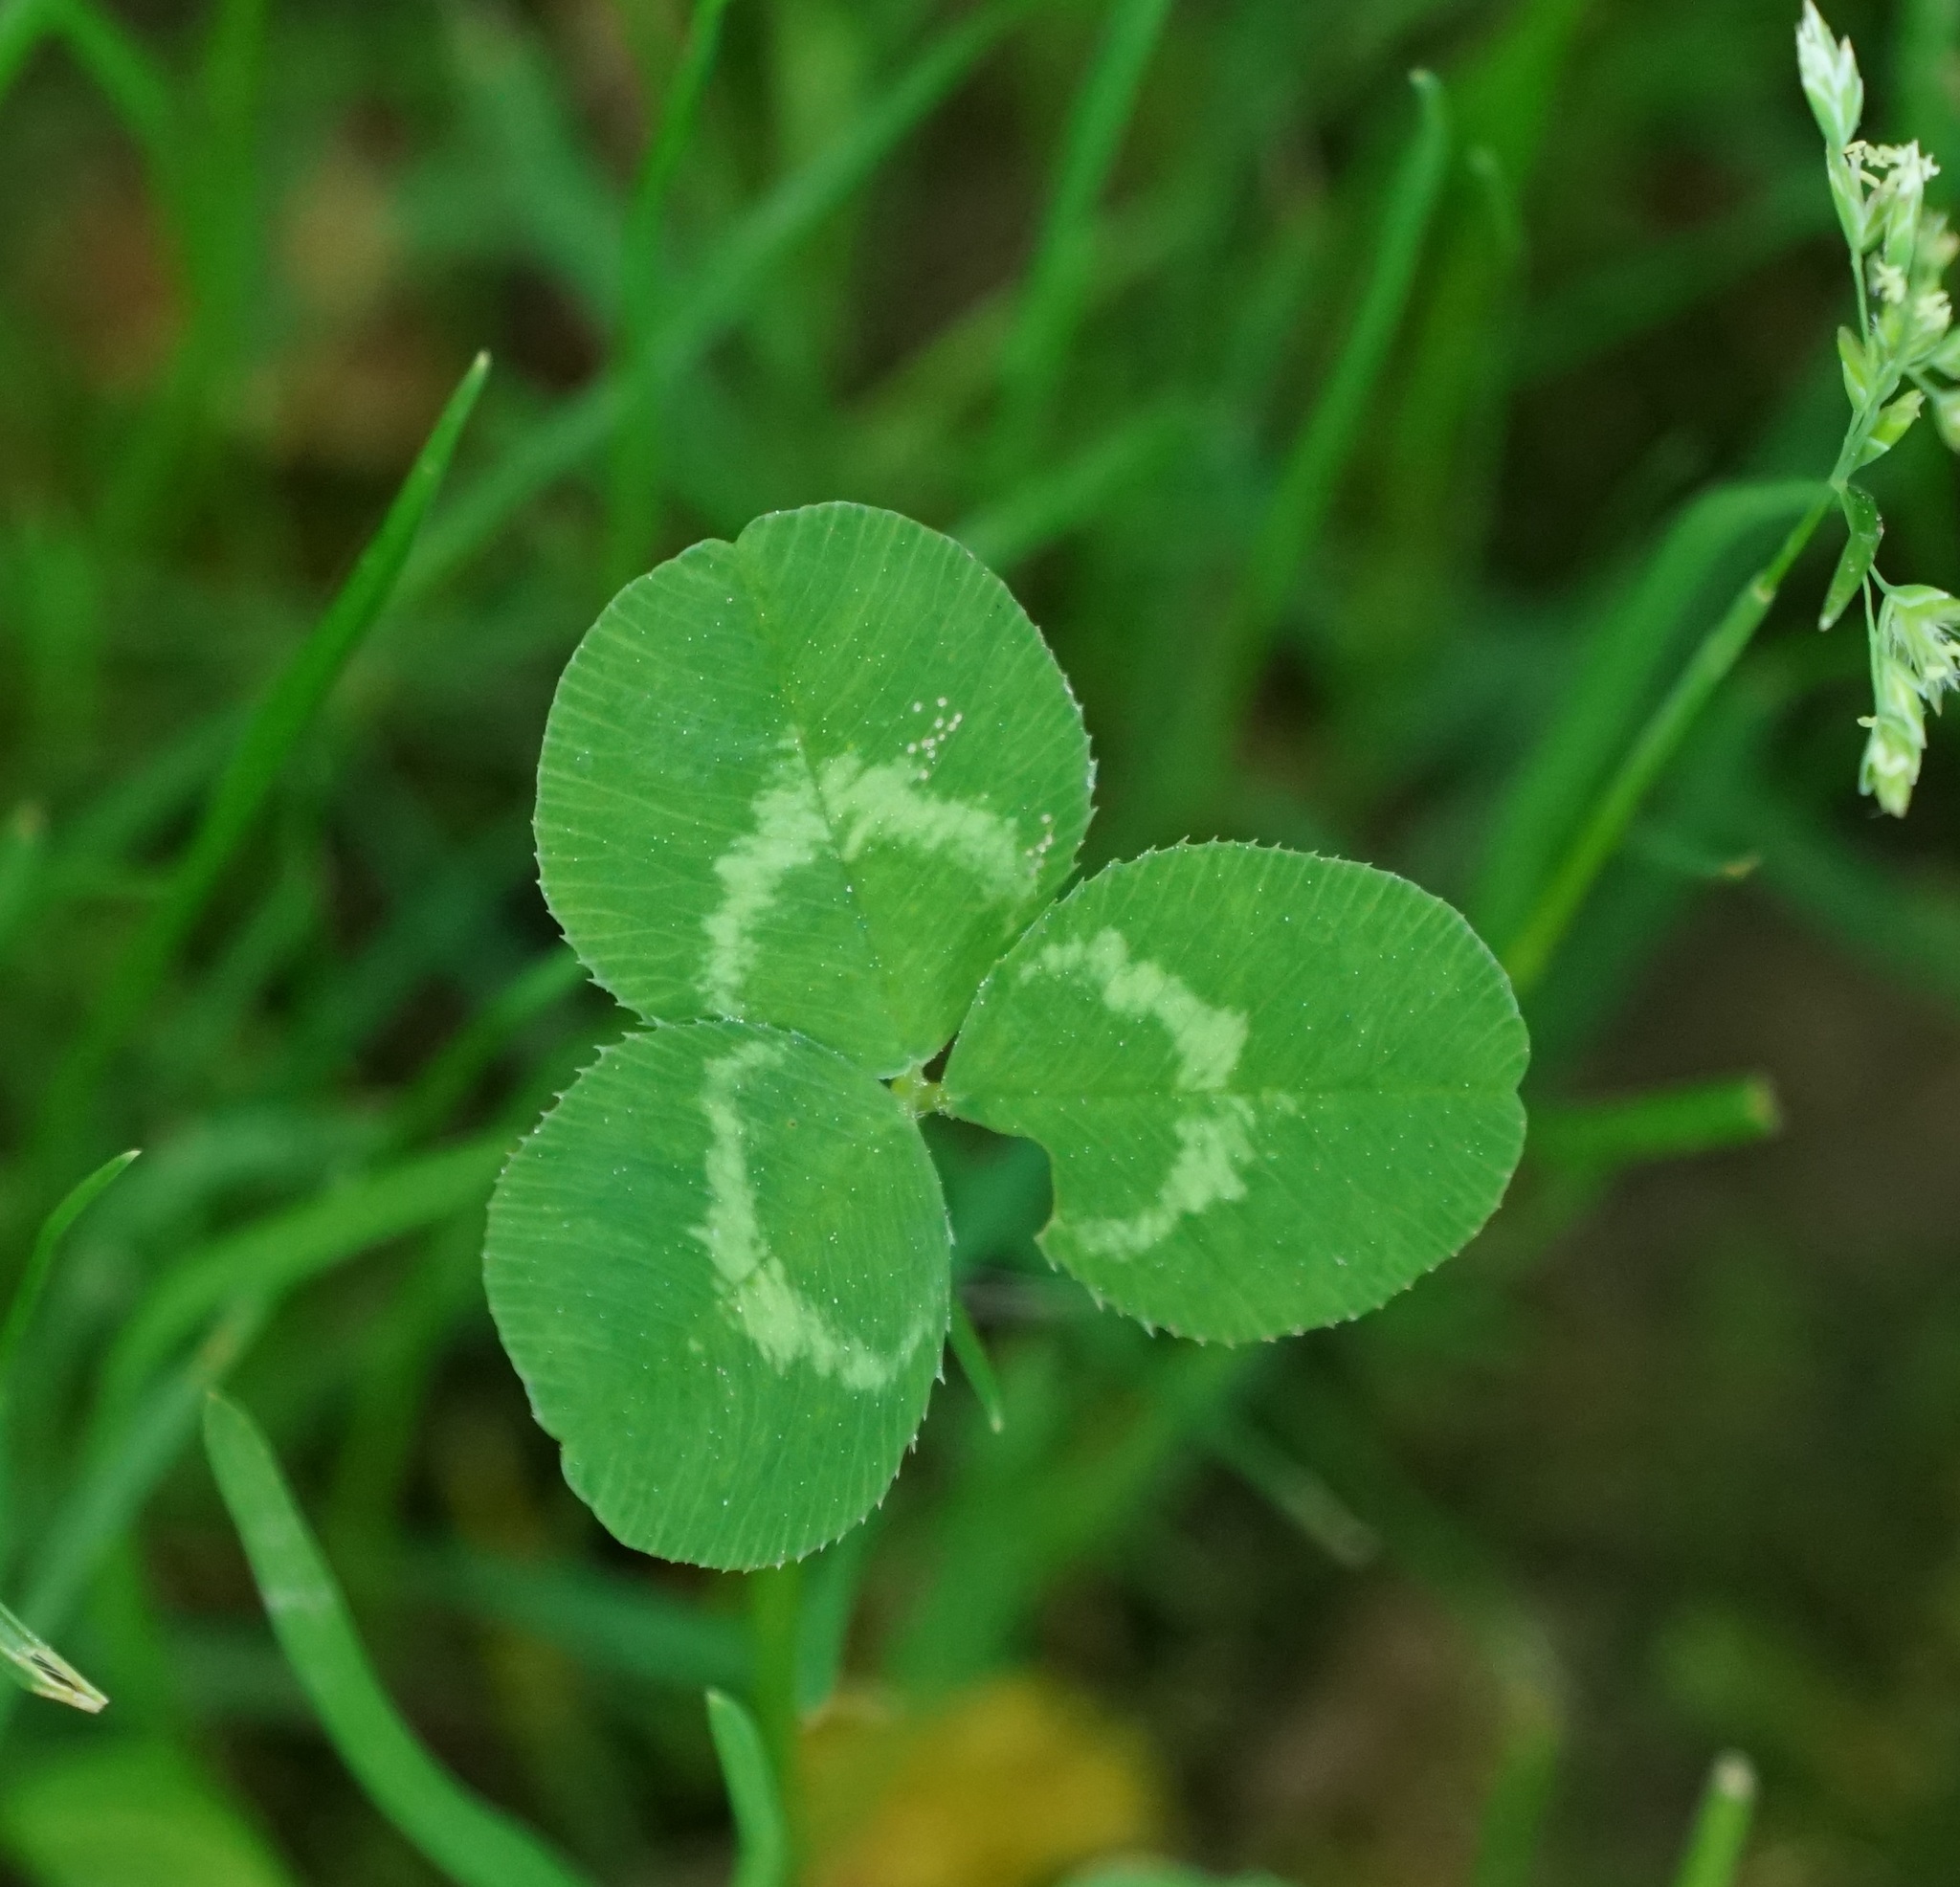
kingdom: Plantae
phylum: Tracheophyta
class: Magnoliopsida
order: Fabales
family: Fabaceae
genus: Trifolium
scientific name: Trifolium repens
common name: White clover
